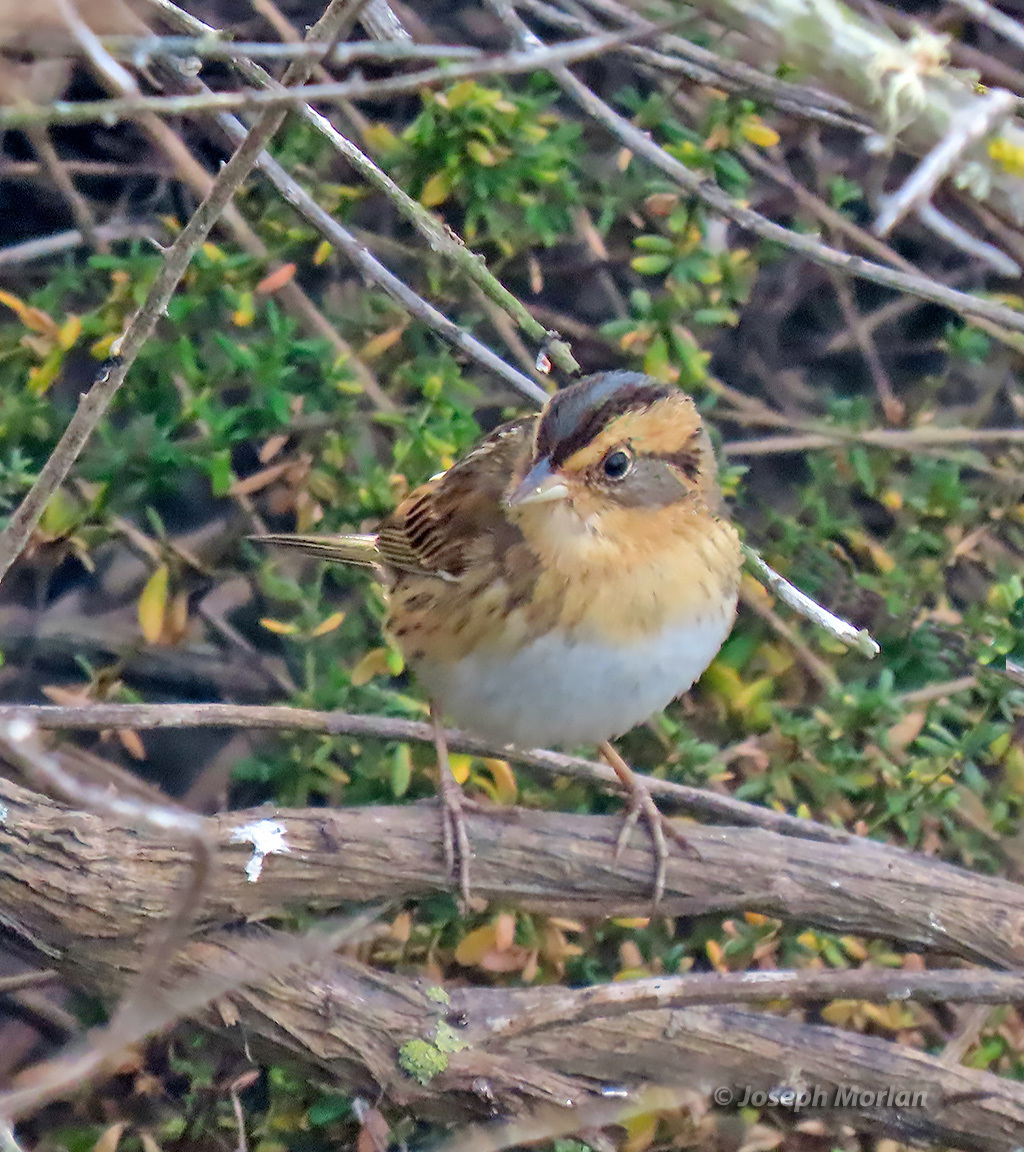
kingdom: Animalia
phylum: Chordata
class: Aves
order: Passeriformes
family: Passerellidae
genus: Ammospiza
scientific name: Ammospiza nelsoni
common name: Nelson's sparrow
